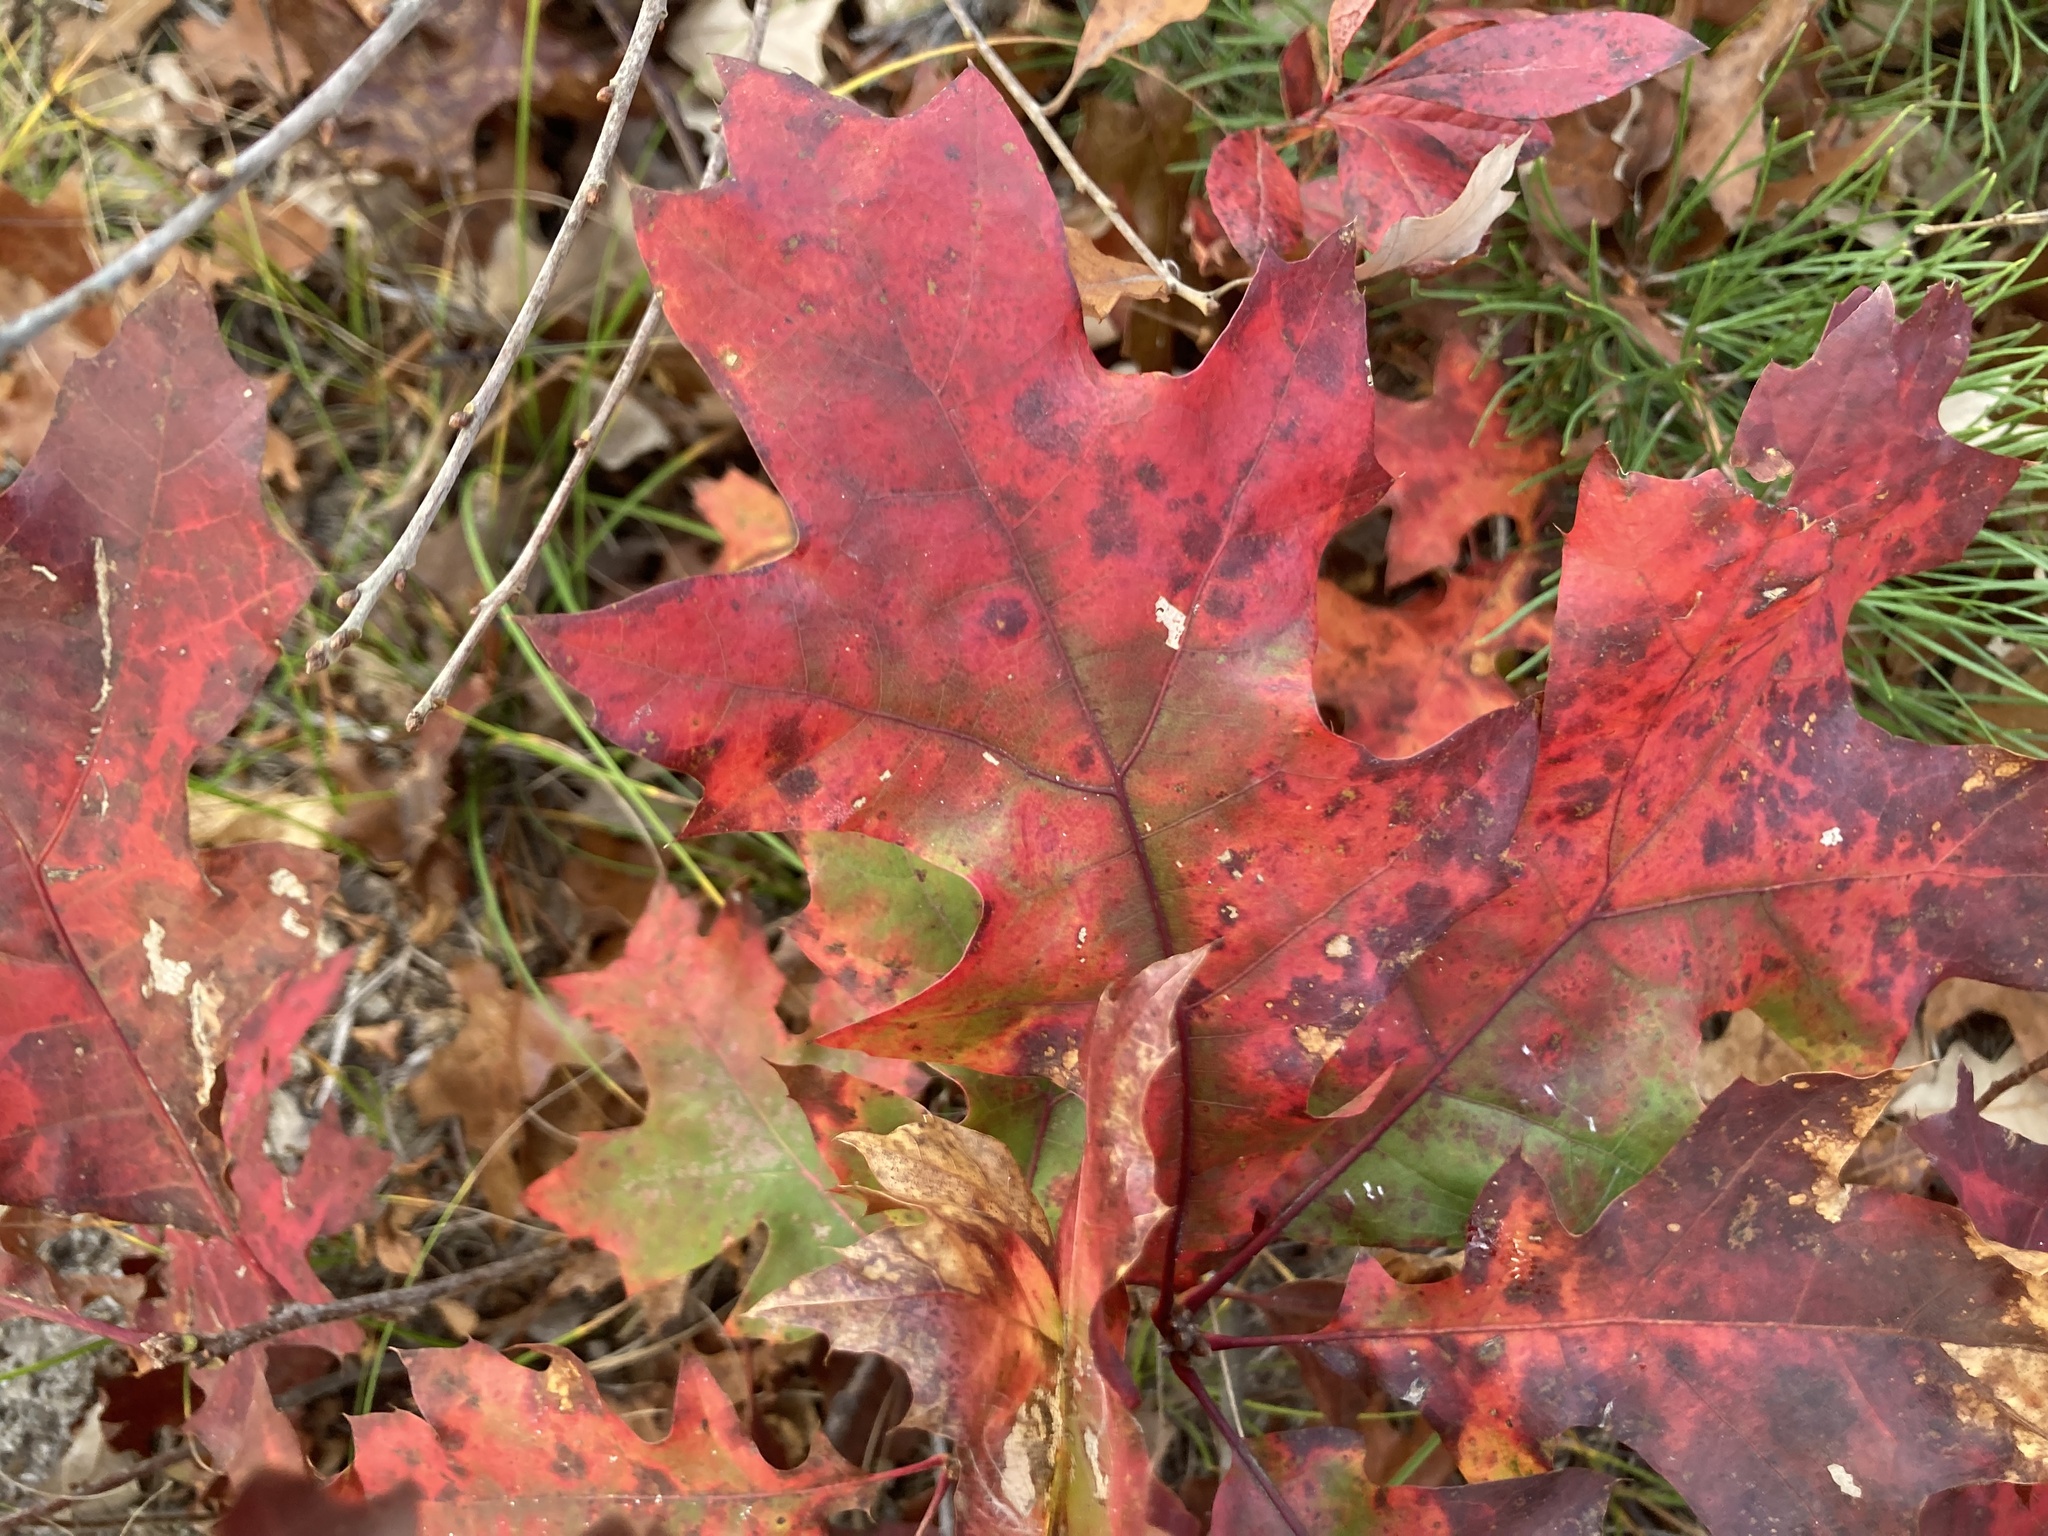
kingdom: Plantae
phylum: Tracheophyta
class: Magnoliopsida
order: Fagales
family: Fagaceae
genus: Quercus
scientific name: Quercus rubra
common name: Red oak
